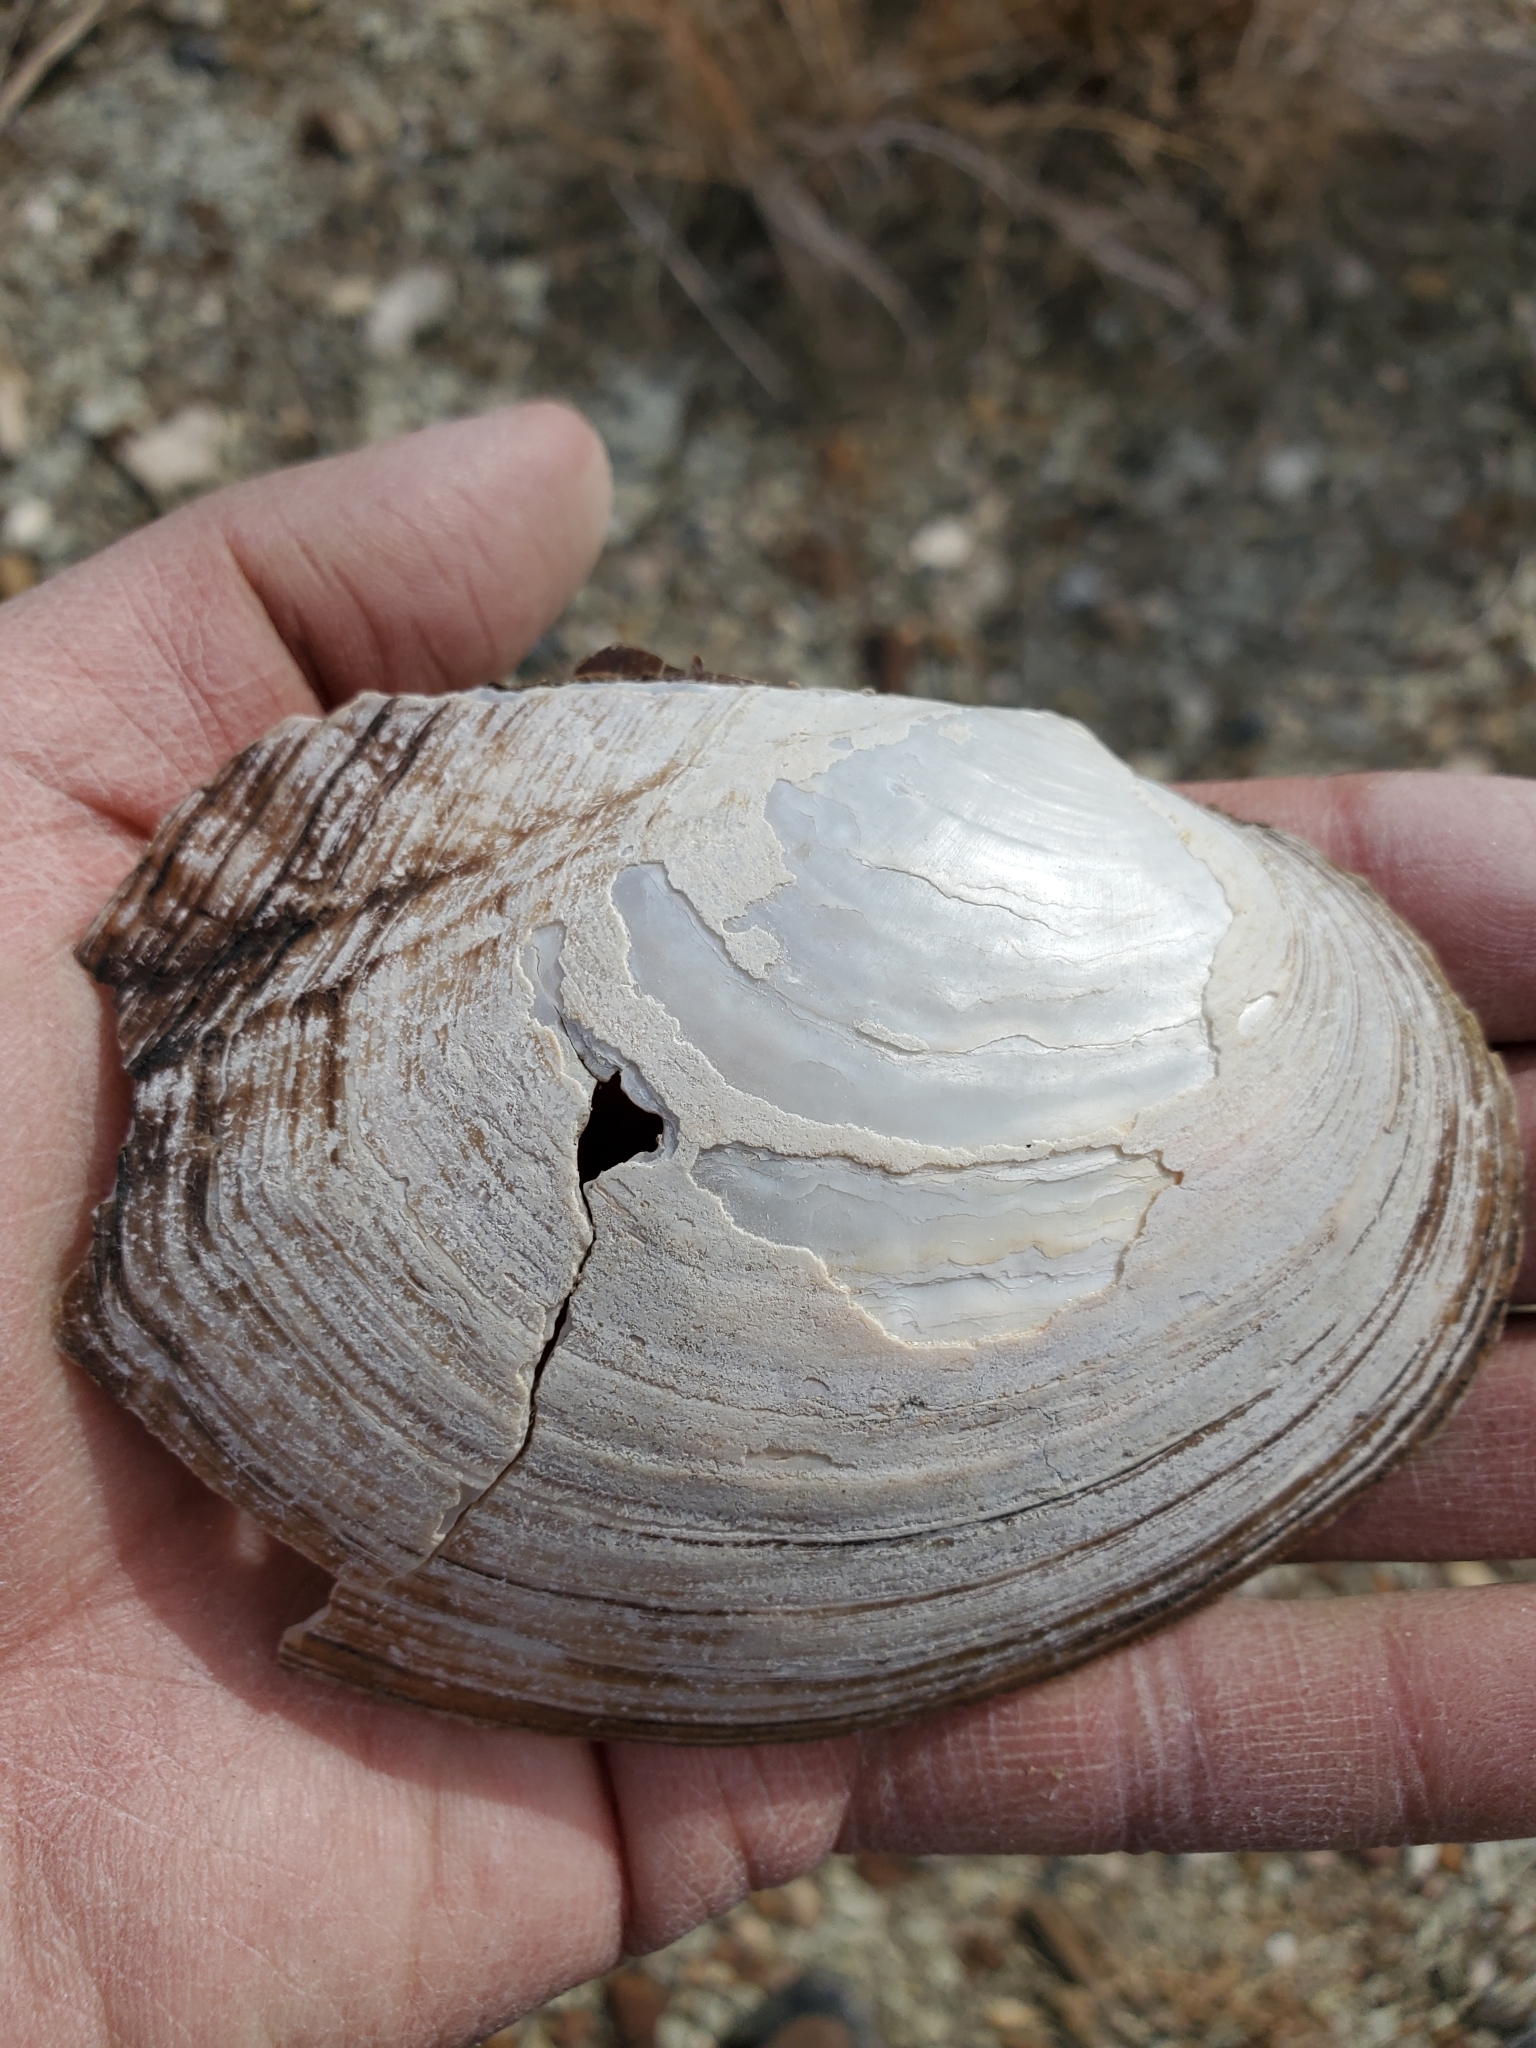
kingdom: Animalia
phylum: Mollusca
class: Bivalvia
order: Unionida
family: Unionidae
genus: Lasmigona
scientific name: Lasmigona complanata
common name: White heelsplitter
